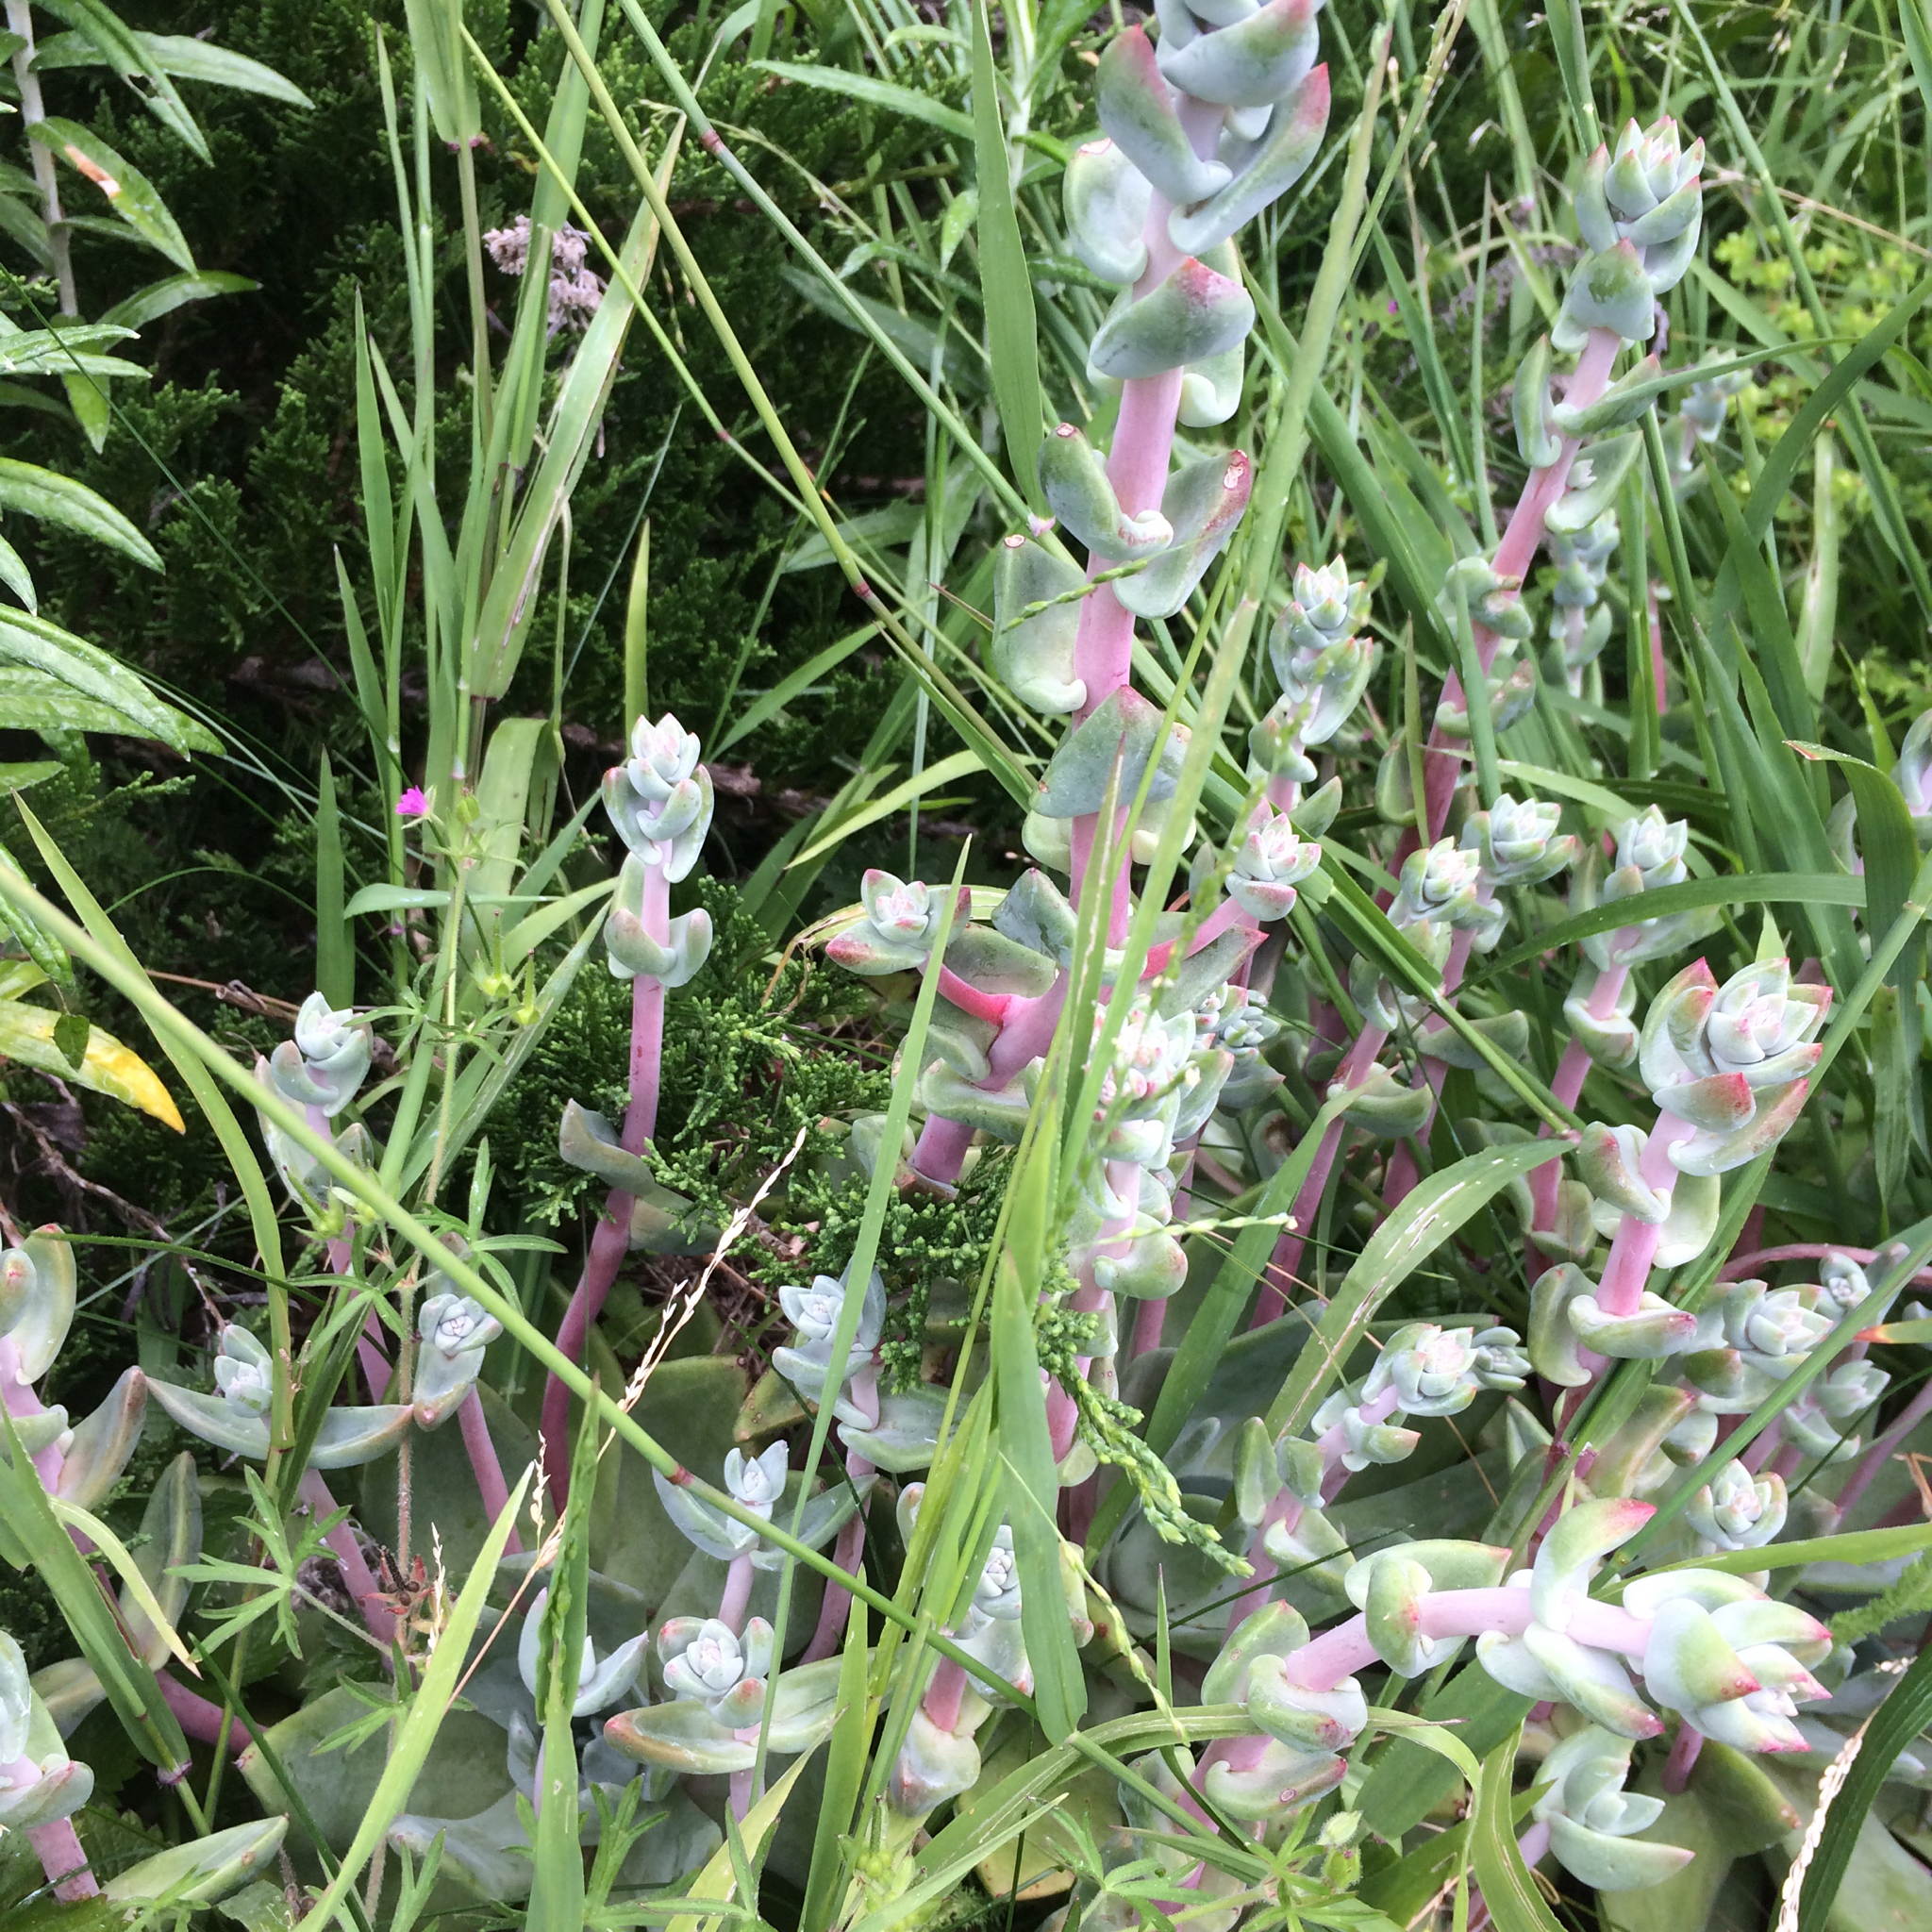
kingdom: Plantae
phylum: Tracheophyta
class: Magnoliopsida
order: Saxifragales
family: Crassulaceae
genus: Dudleya
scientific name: Dudleya farinosa
